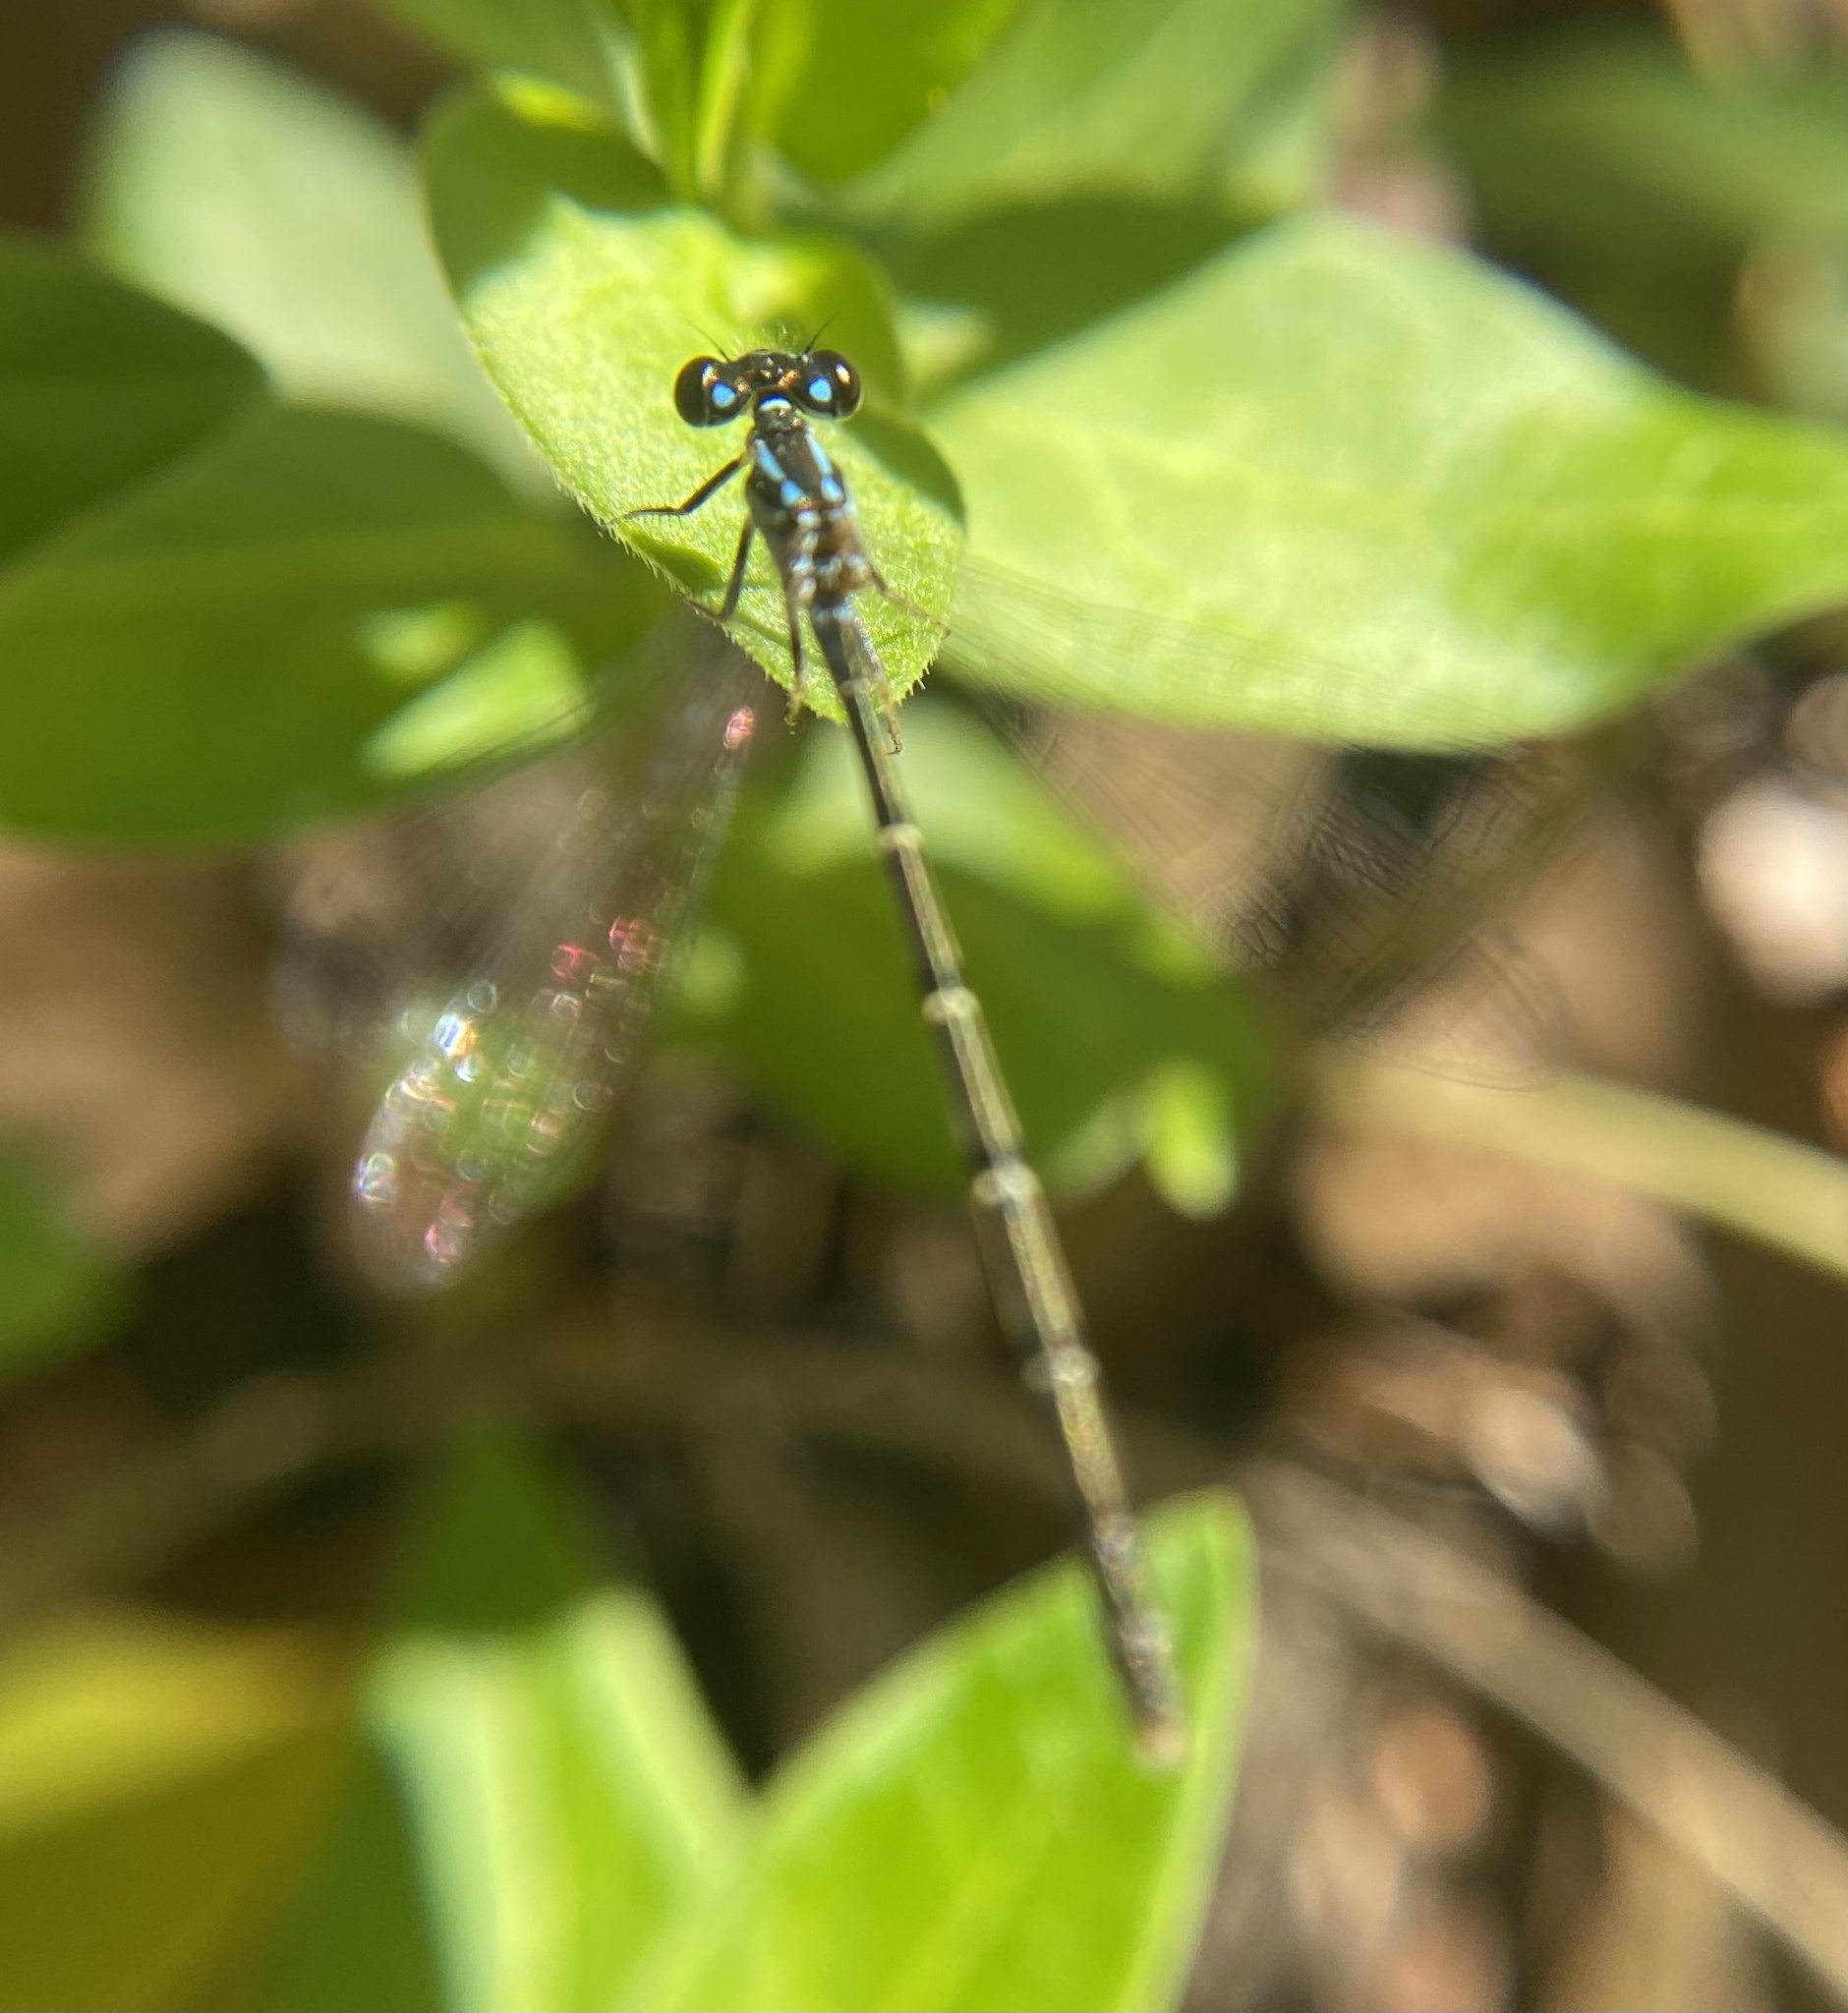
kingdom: Animalia
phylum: Arthropoda
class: Insecta
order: Odonata
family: Coenagrionidae
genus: Ischnura
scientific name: Ischnura posita
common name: Fragile forktail
